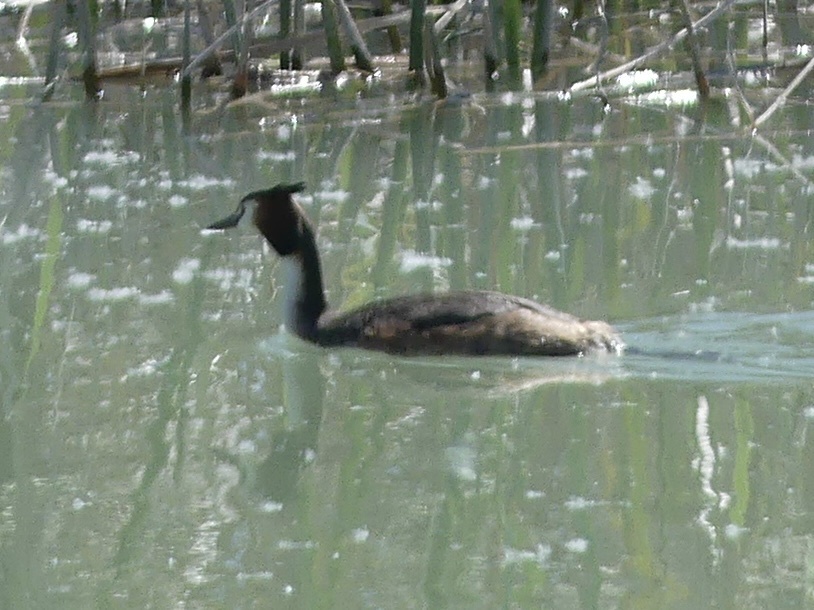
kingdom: Animalia
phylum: Chordata
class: Aves
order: Podicipediformes
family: Podicipedidae
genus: Podiceps
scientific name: Podiceps cristatus
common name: Great crested grebe
